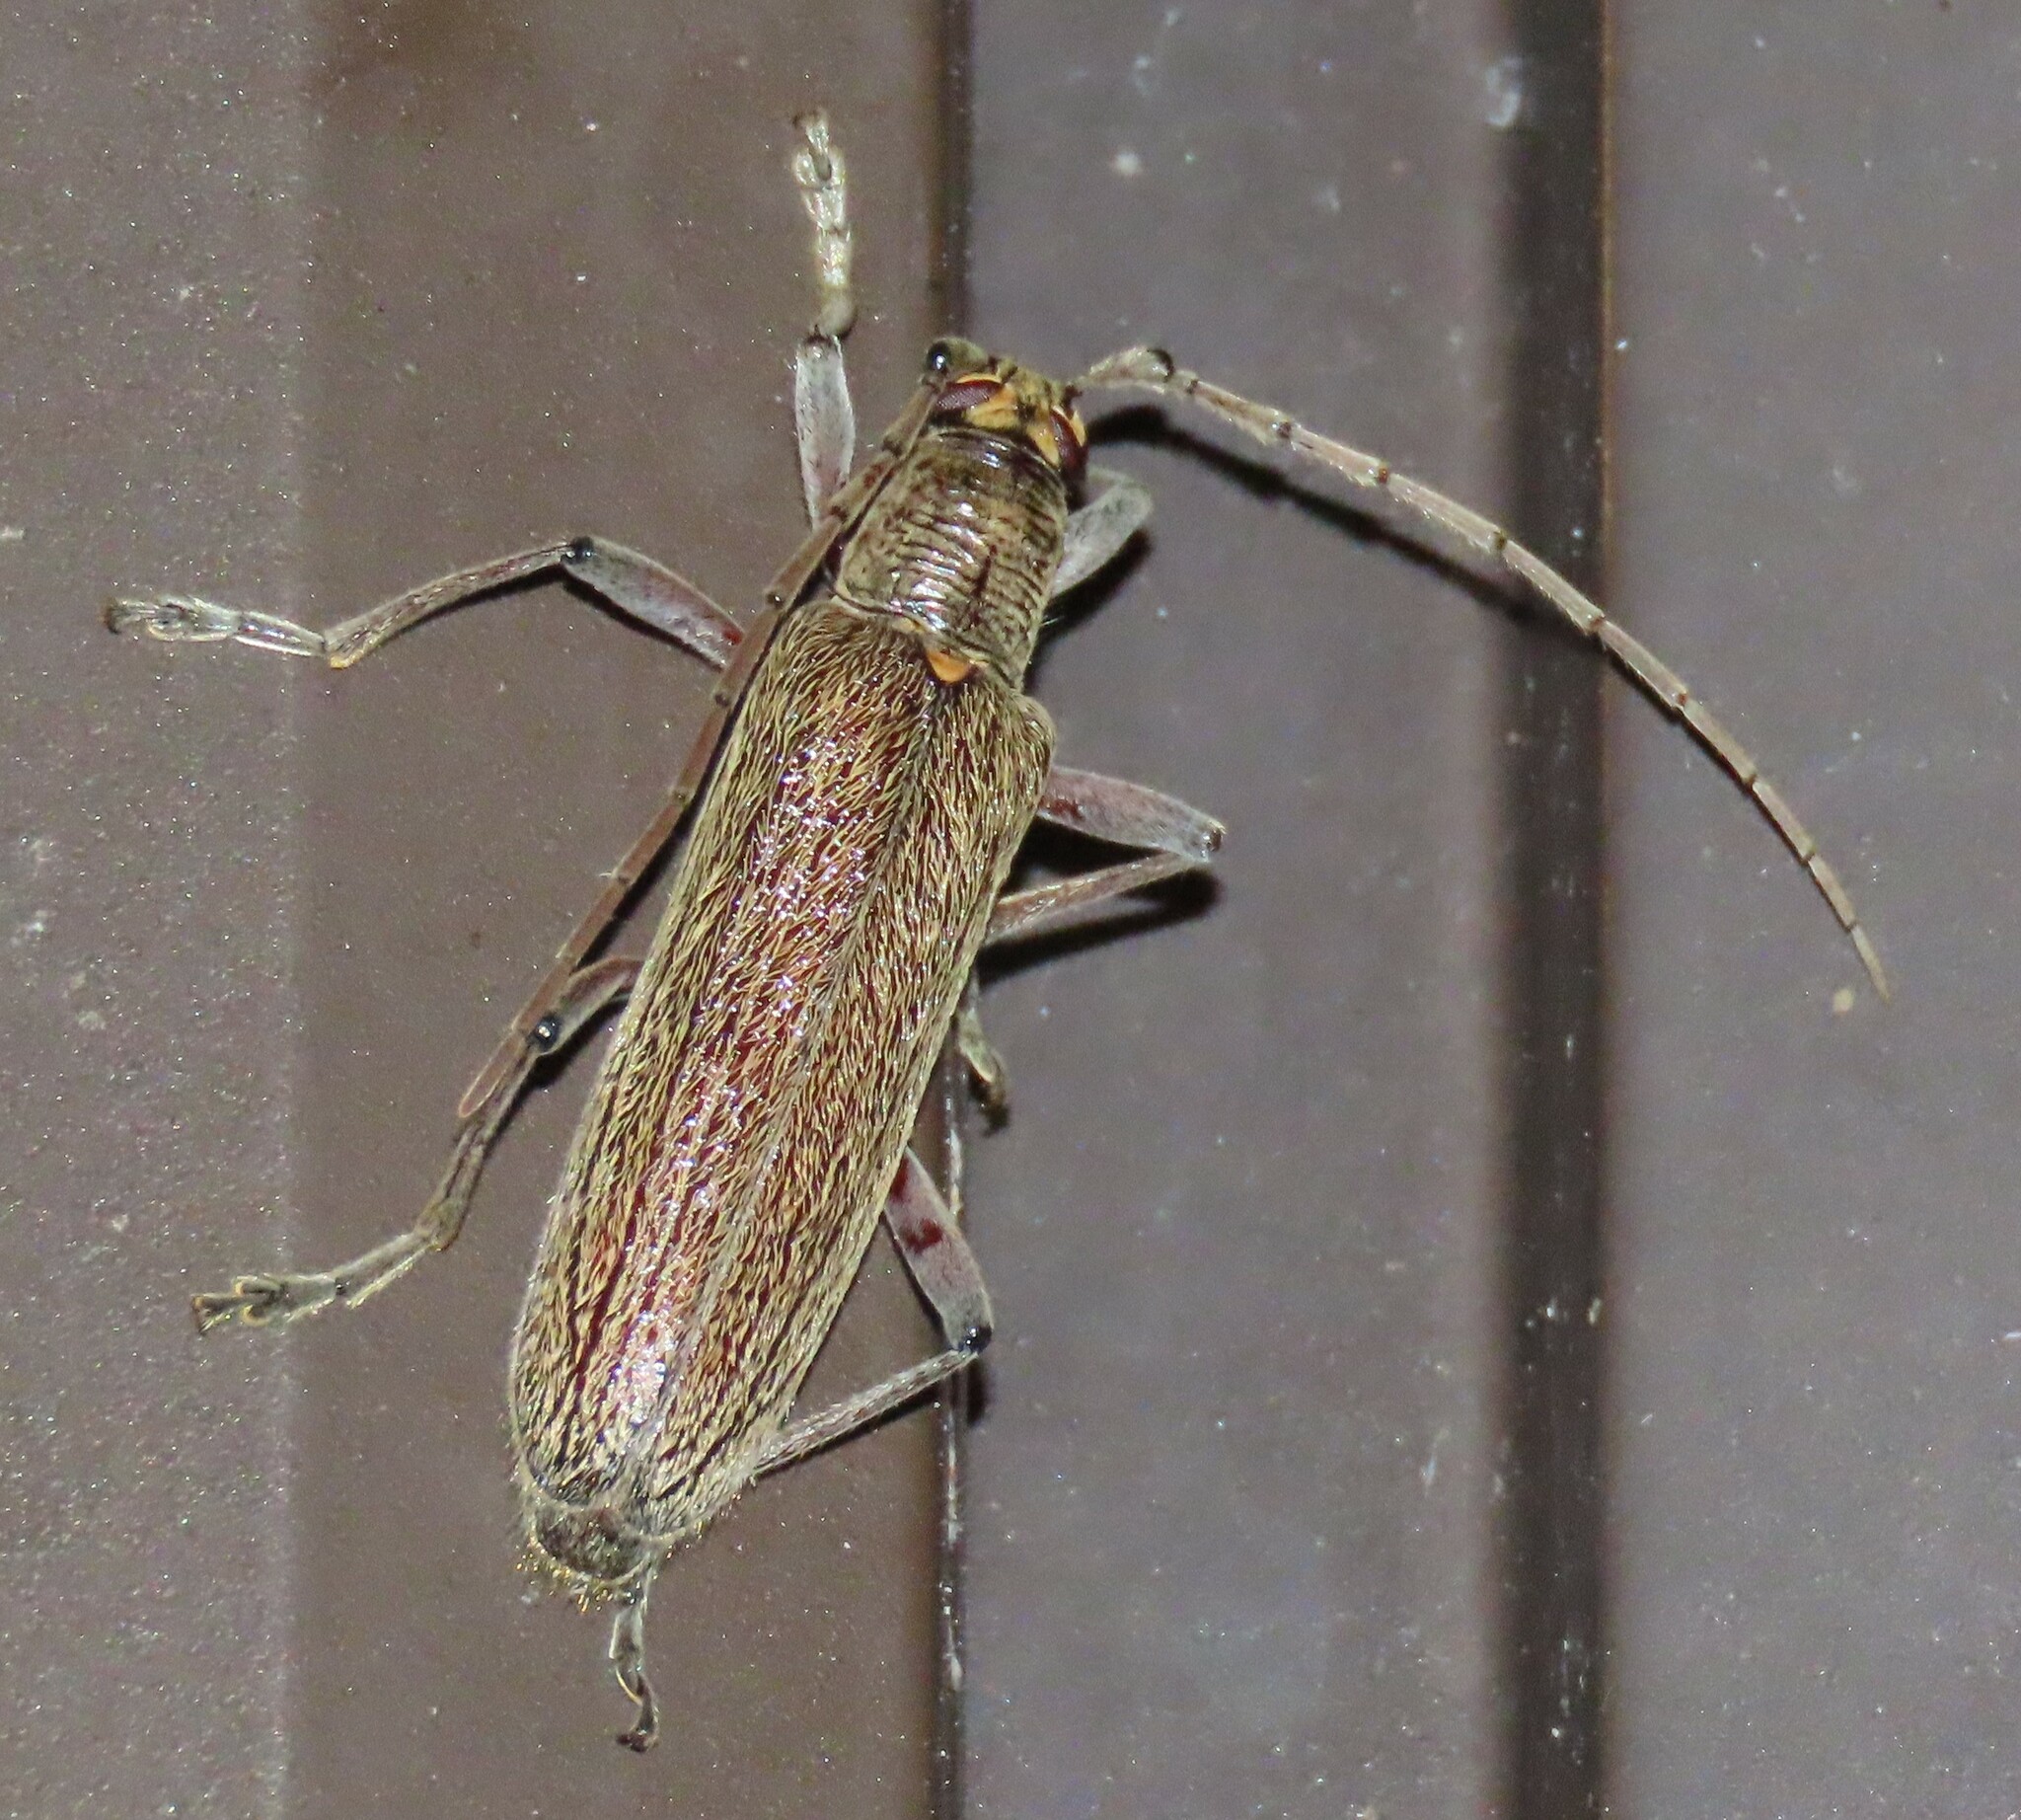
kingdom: Animalia
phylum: Arthropoda
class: Insecta
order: Coleoptera
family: Cerambycidae
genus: Oemona
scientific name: Oemona hirta
